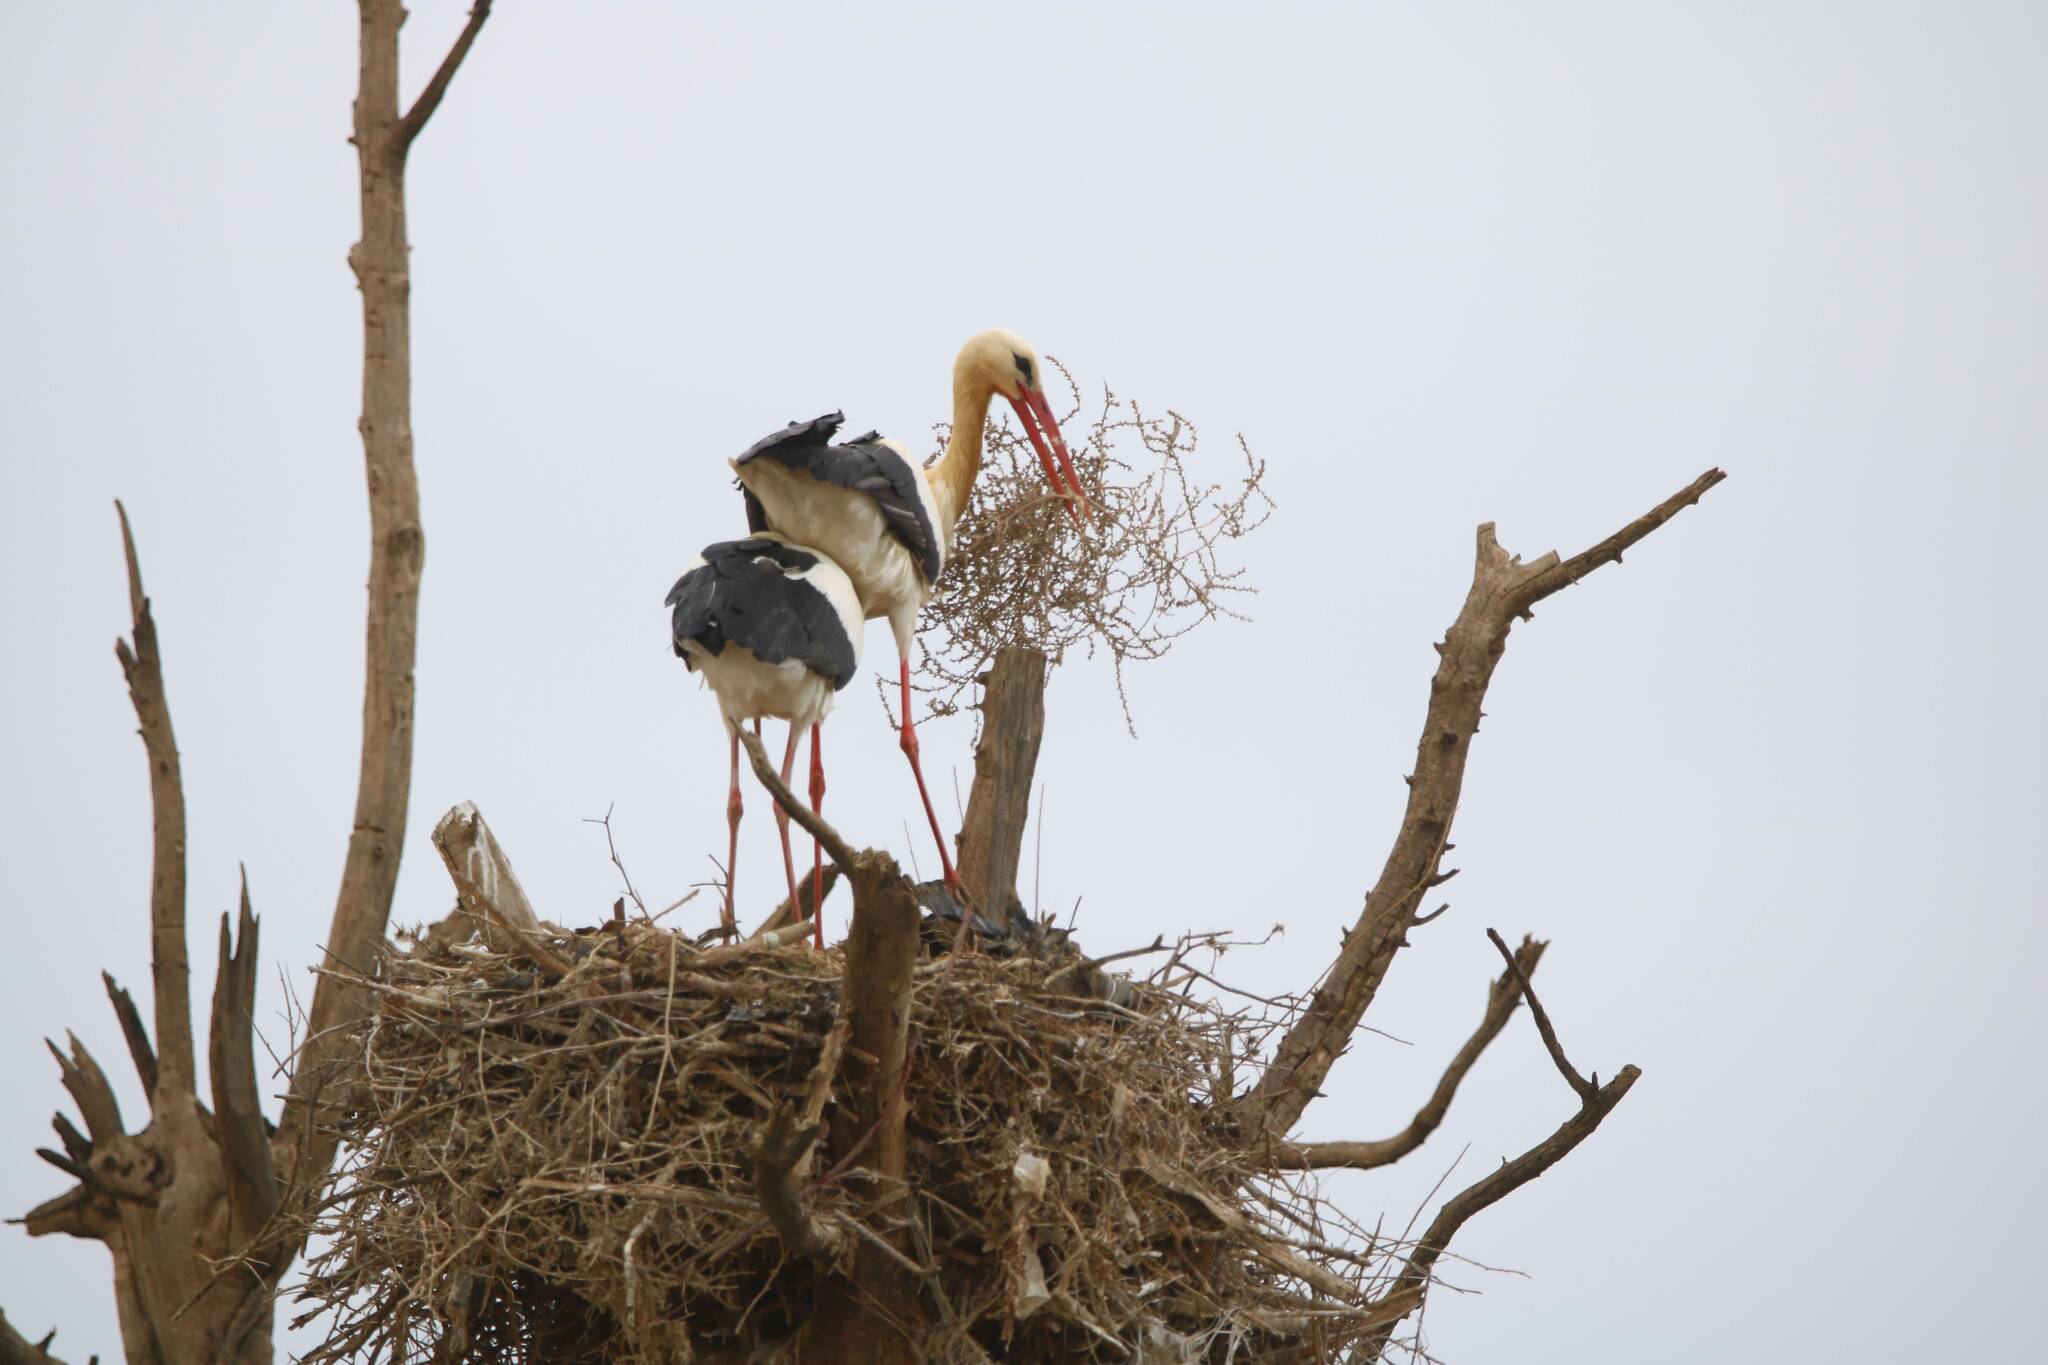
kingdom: Animalia
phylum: Chordata
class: Aves
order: Ciconiiformes
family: Ciconiidae
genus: Ciconia
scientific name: Ciconia ciconia
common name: White stork
